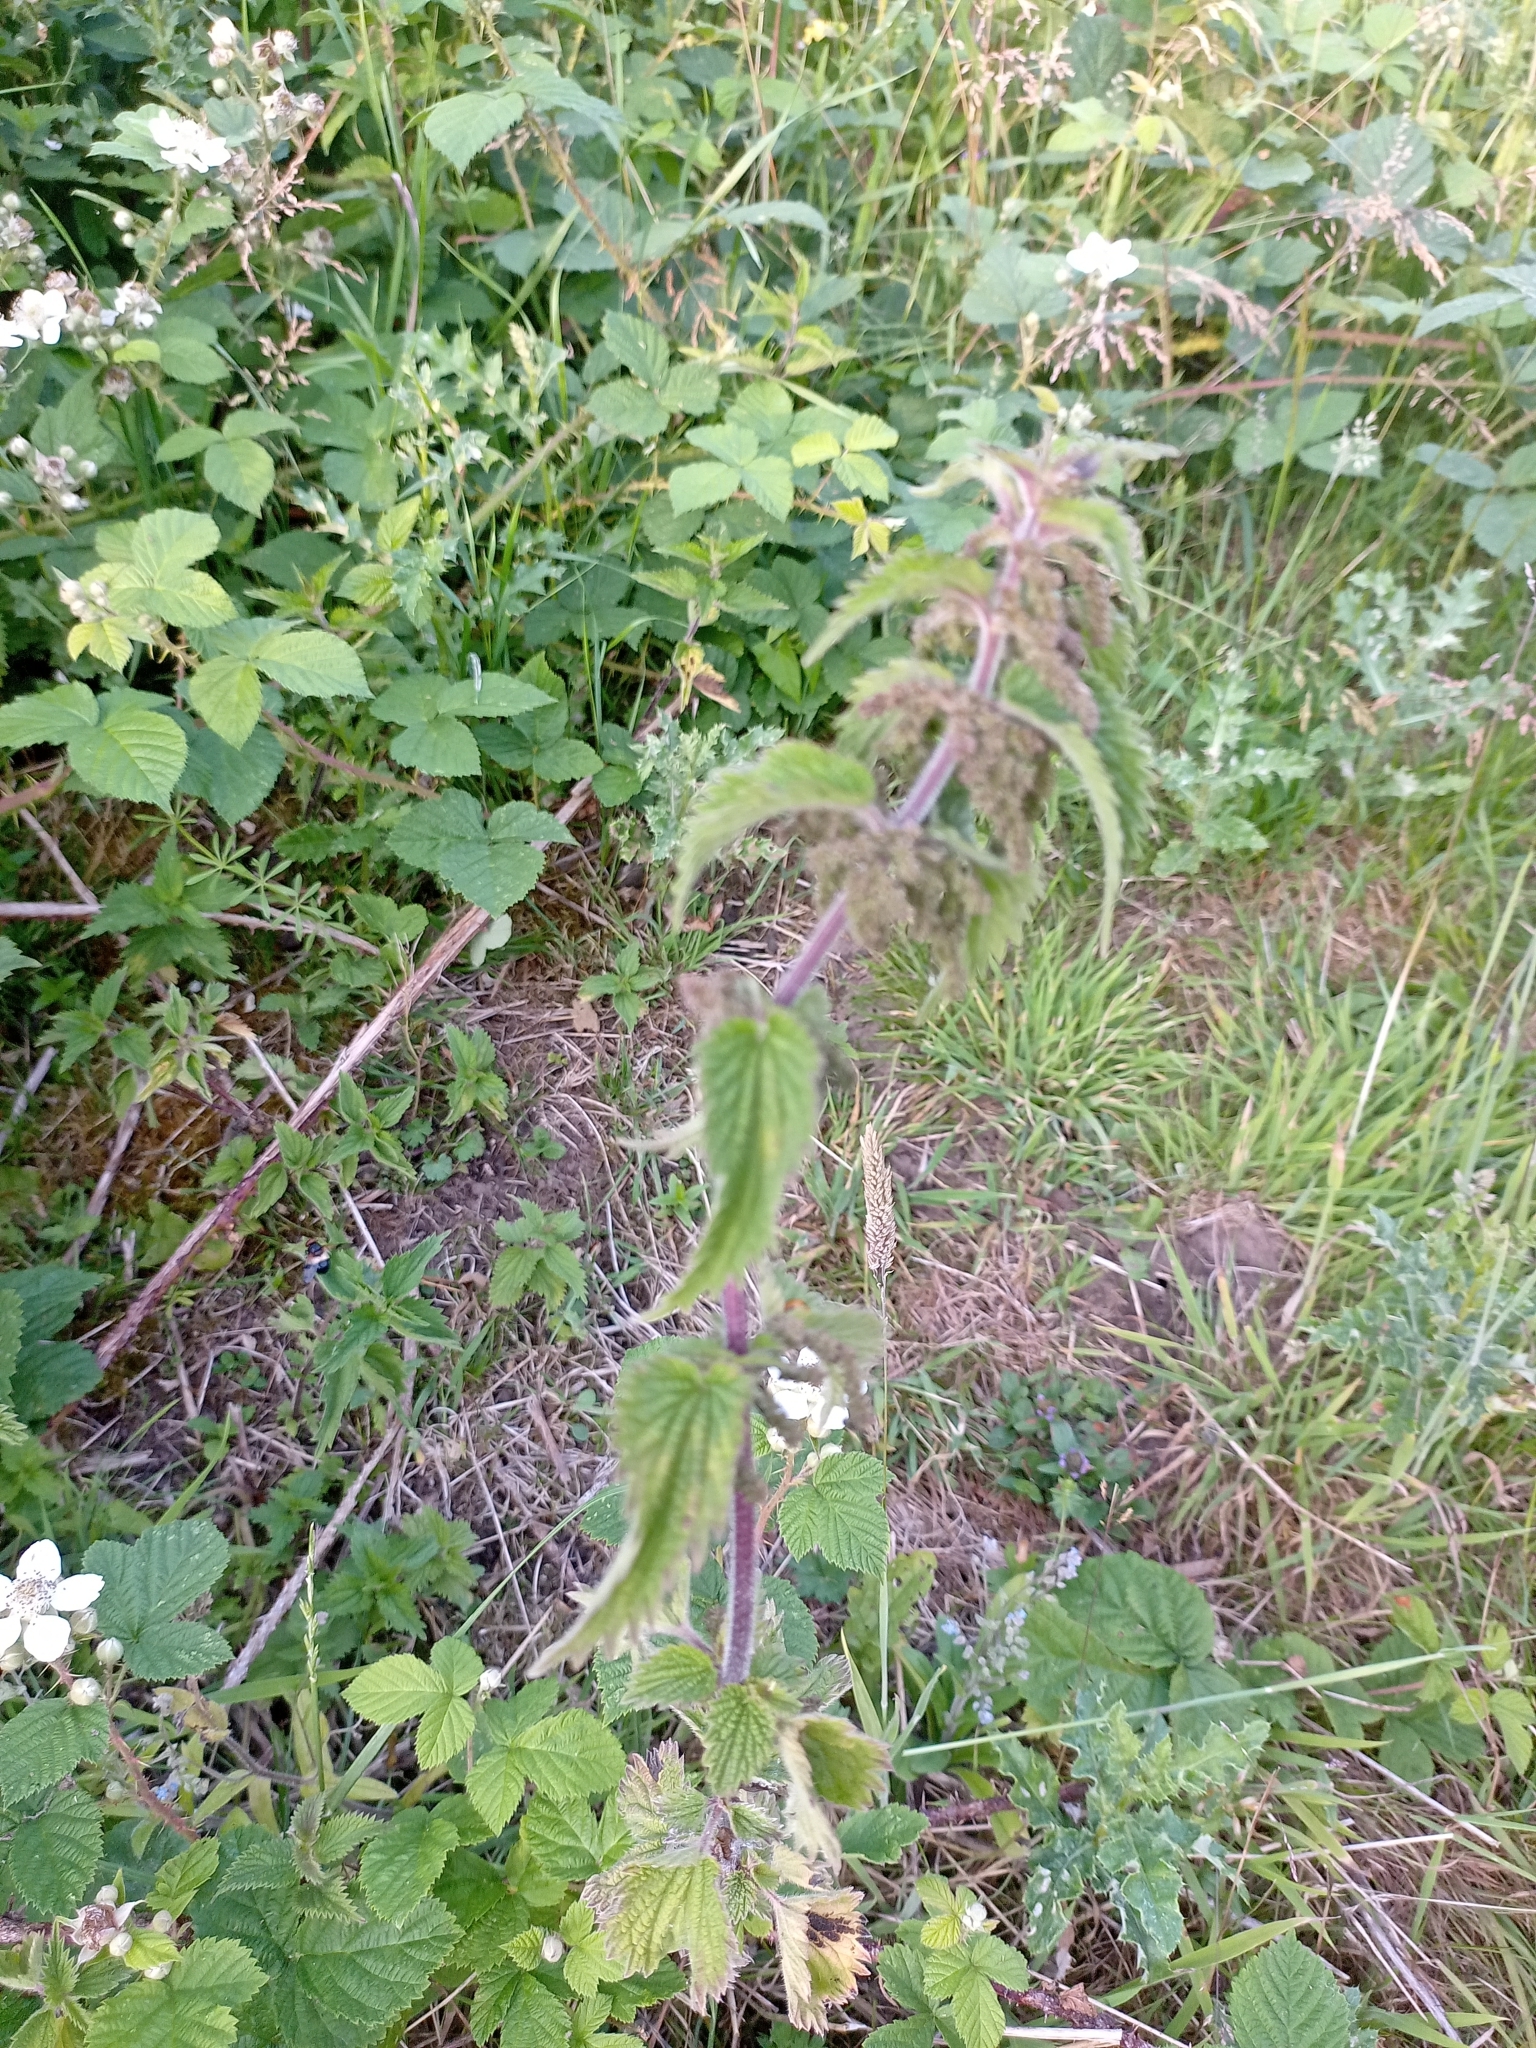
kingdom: Plantae
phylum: Tracheophyta
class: Magnoliopsida
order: Rosales
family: Urticaceae
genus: Urtica
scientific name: Urtica dioica
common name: Common nettle
